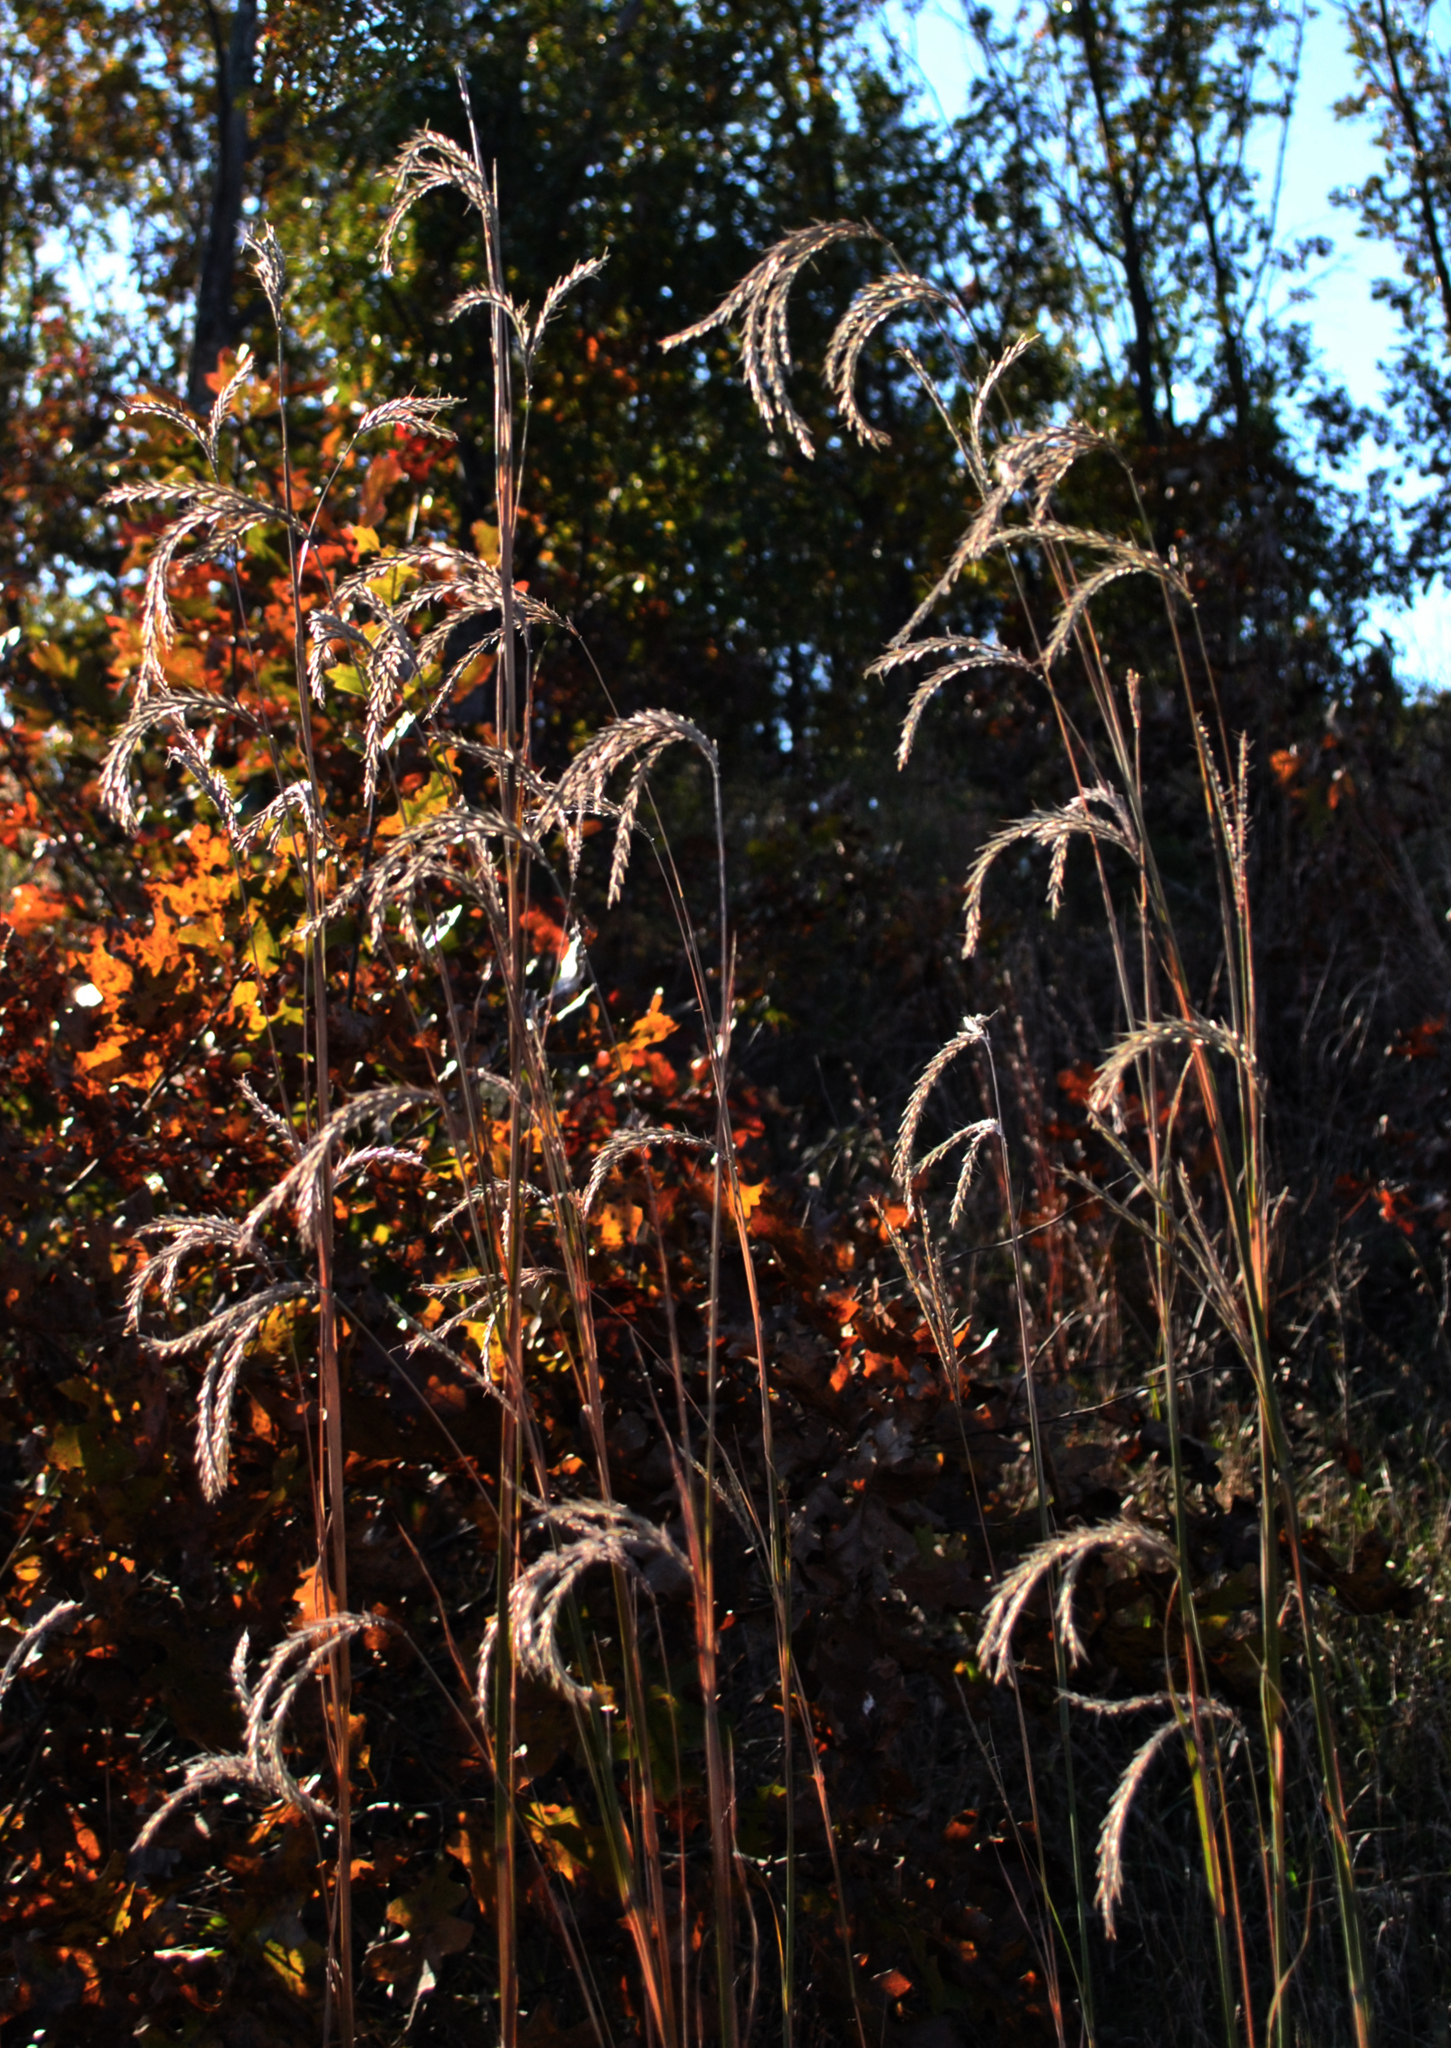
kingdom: Plantae
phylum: Tracheophyta
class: Liliopsida
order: Poales
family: Poaceae
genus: Andropogon
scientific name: Andropogon gerardi
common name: Big bluestem
